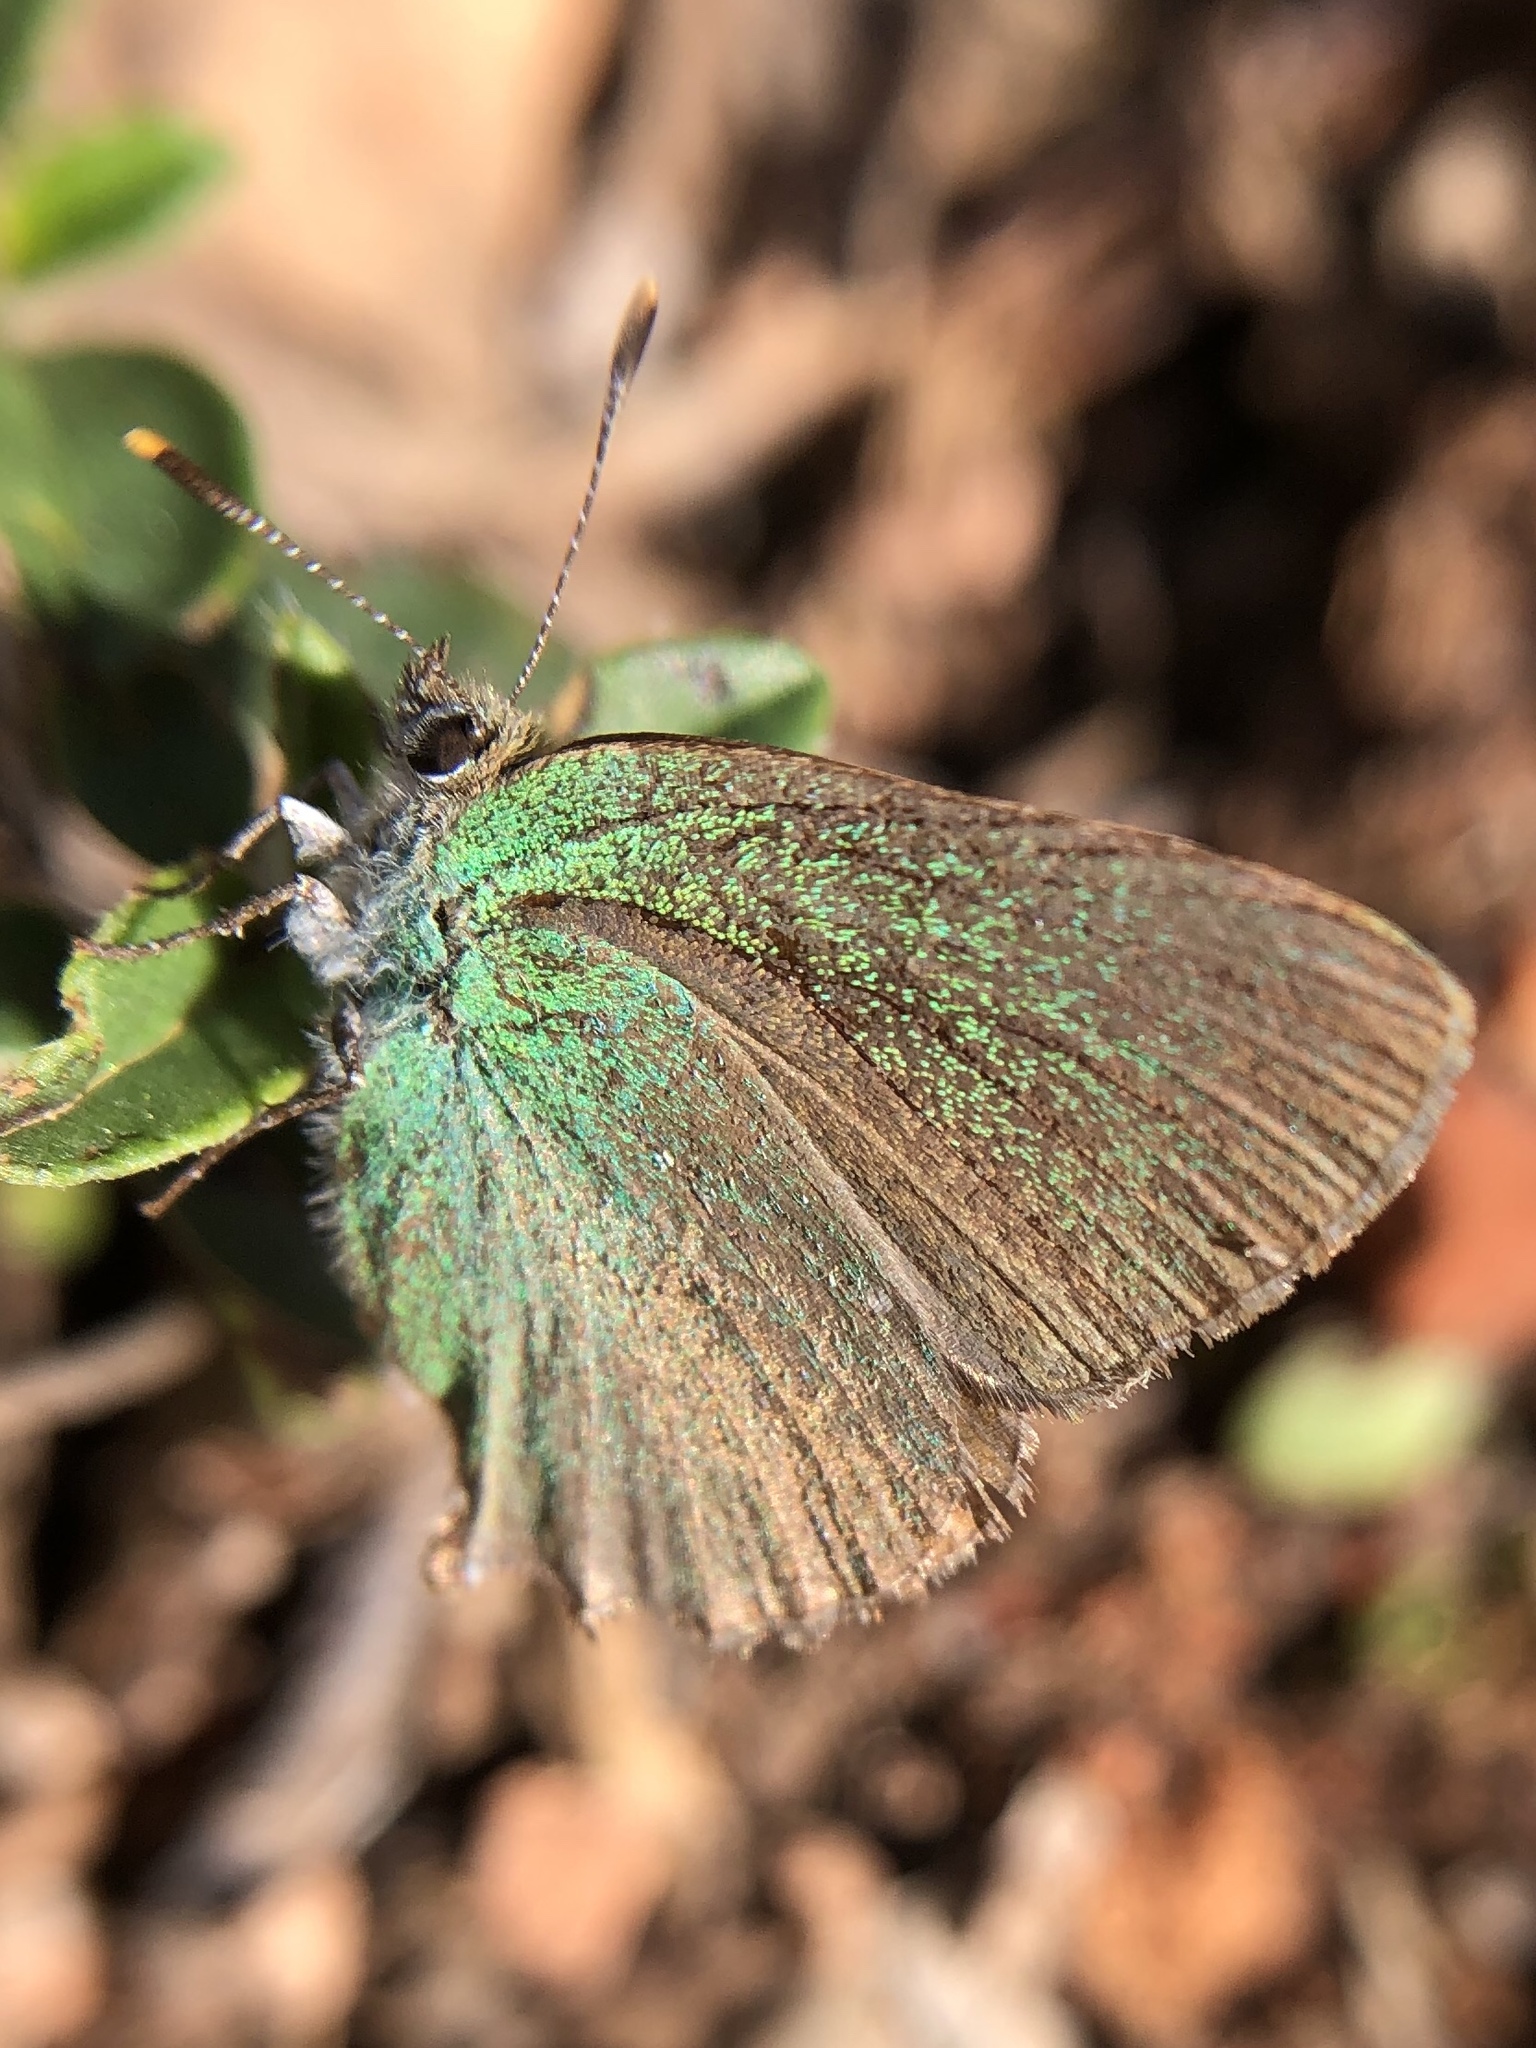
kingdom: Animalia
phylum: Arthropoda
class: Insecta
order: Lepidoptera
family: Lycaenidae
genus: Callophrys
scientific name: Callophrys rubi
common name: Green hairstreak
